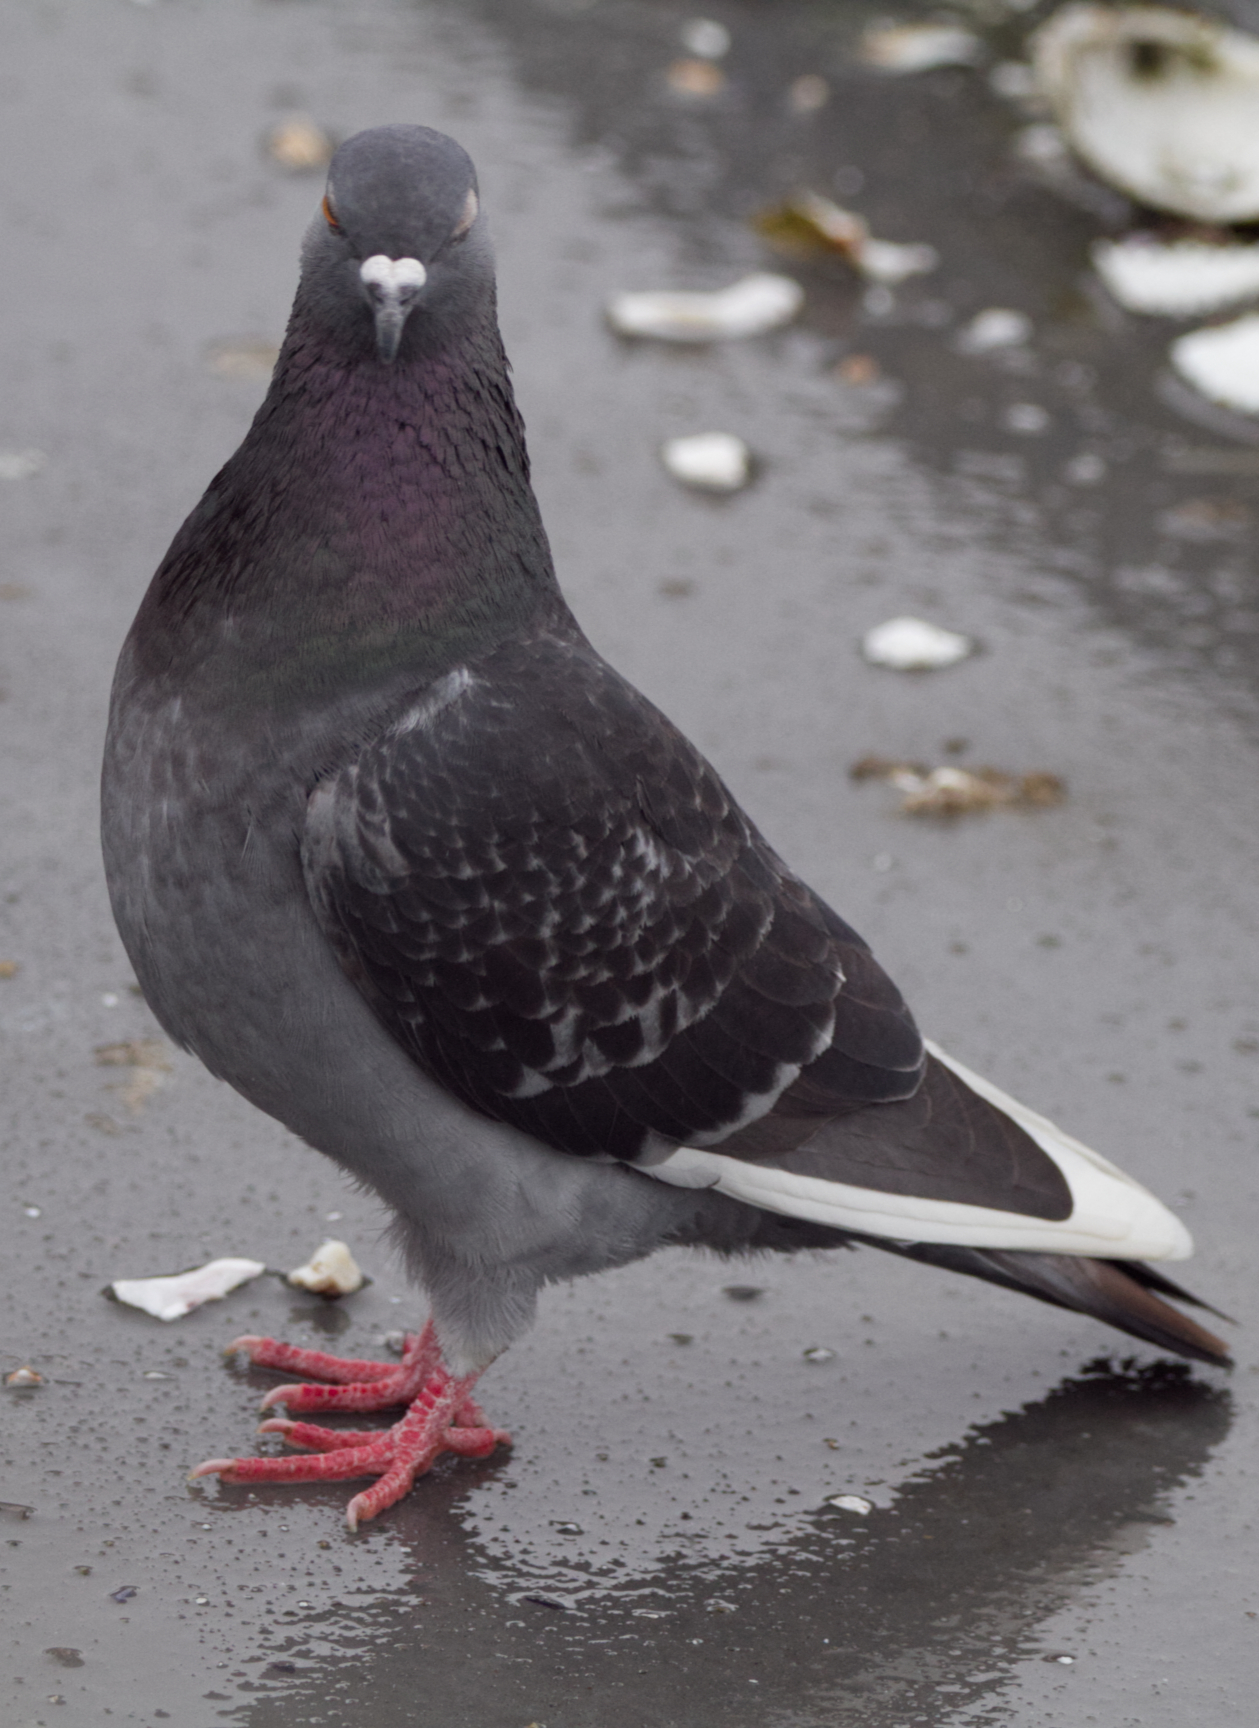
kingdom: Animalia
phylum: Chordata
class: Aves
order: Columbiformes
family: Columbidae
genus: Columba
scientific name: Columba livia
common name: Rock pigeon
